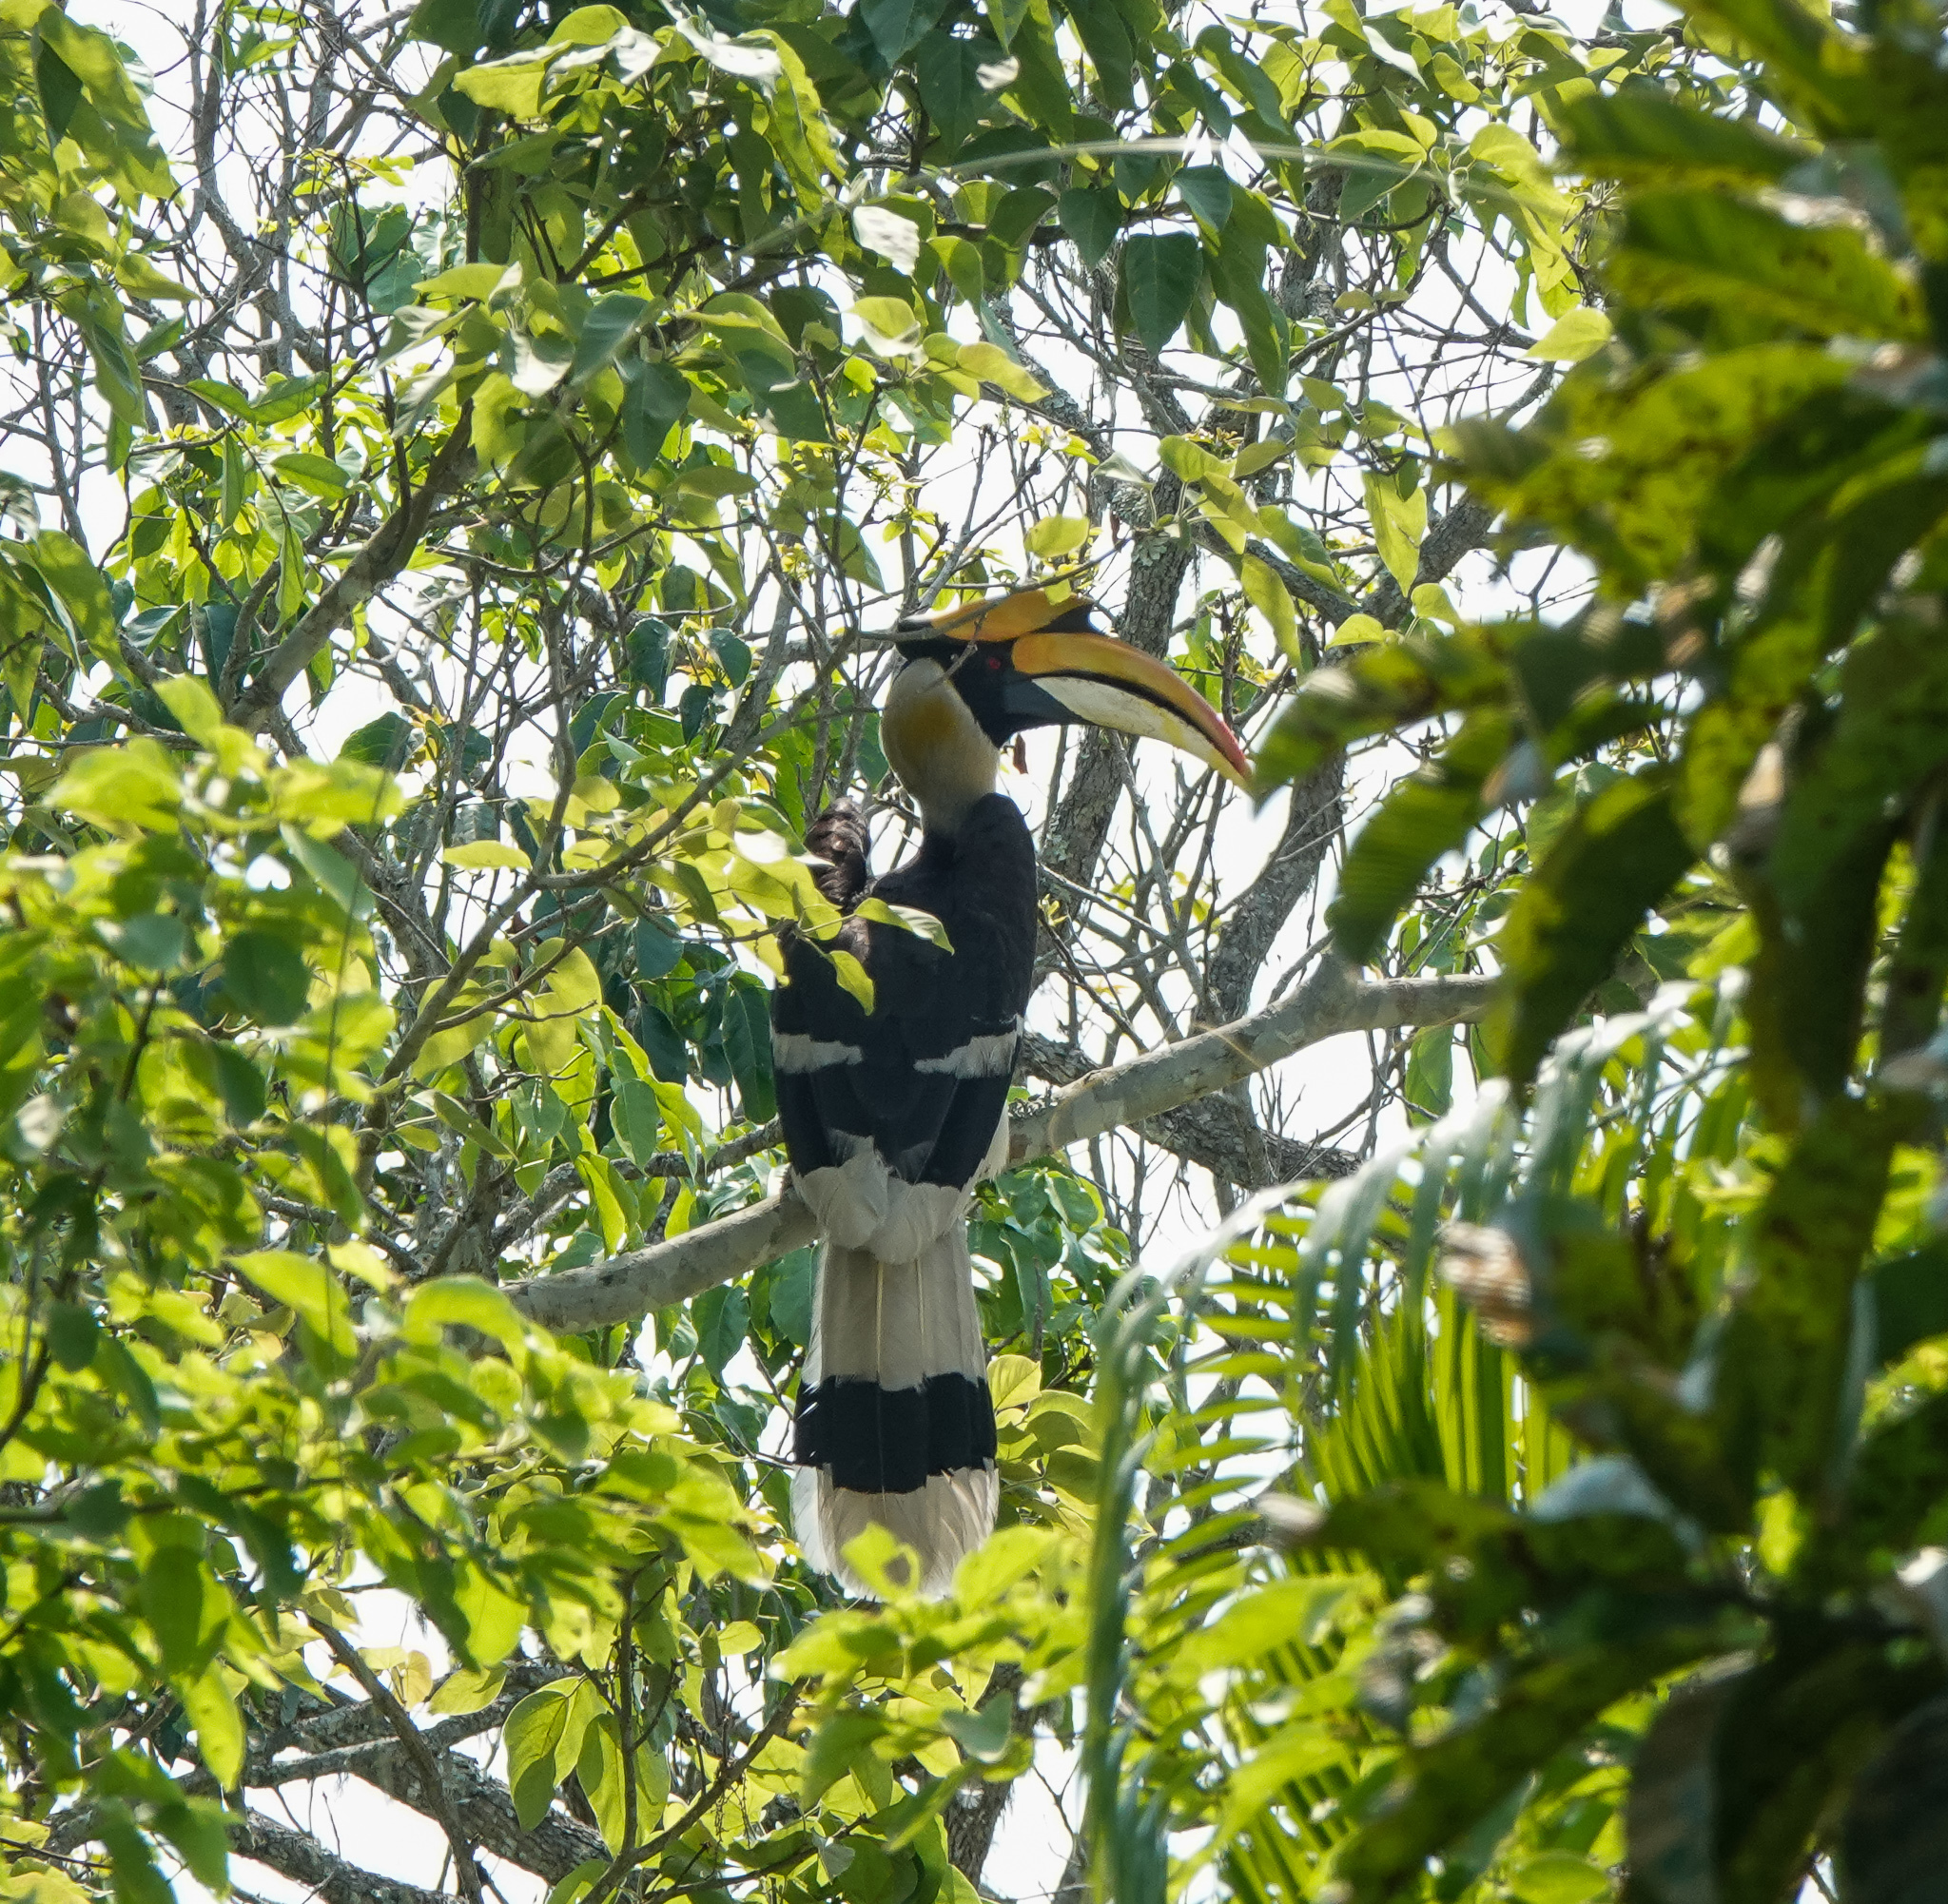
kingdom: Animalia
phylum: Chordata
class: Aves
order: Bucerotiformes
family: Bucerotidae
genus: Buceros
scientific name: Buceros bicornis
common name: Great hornbill
